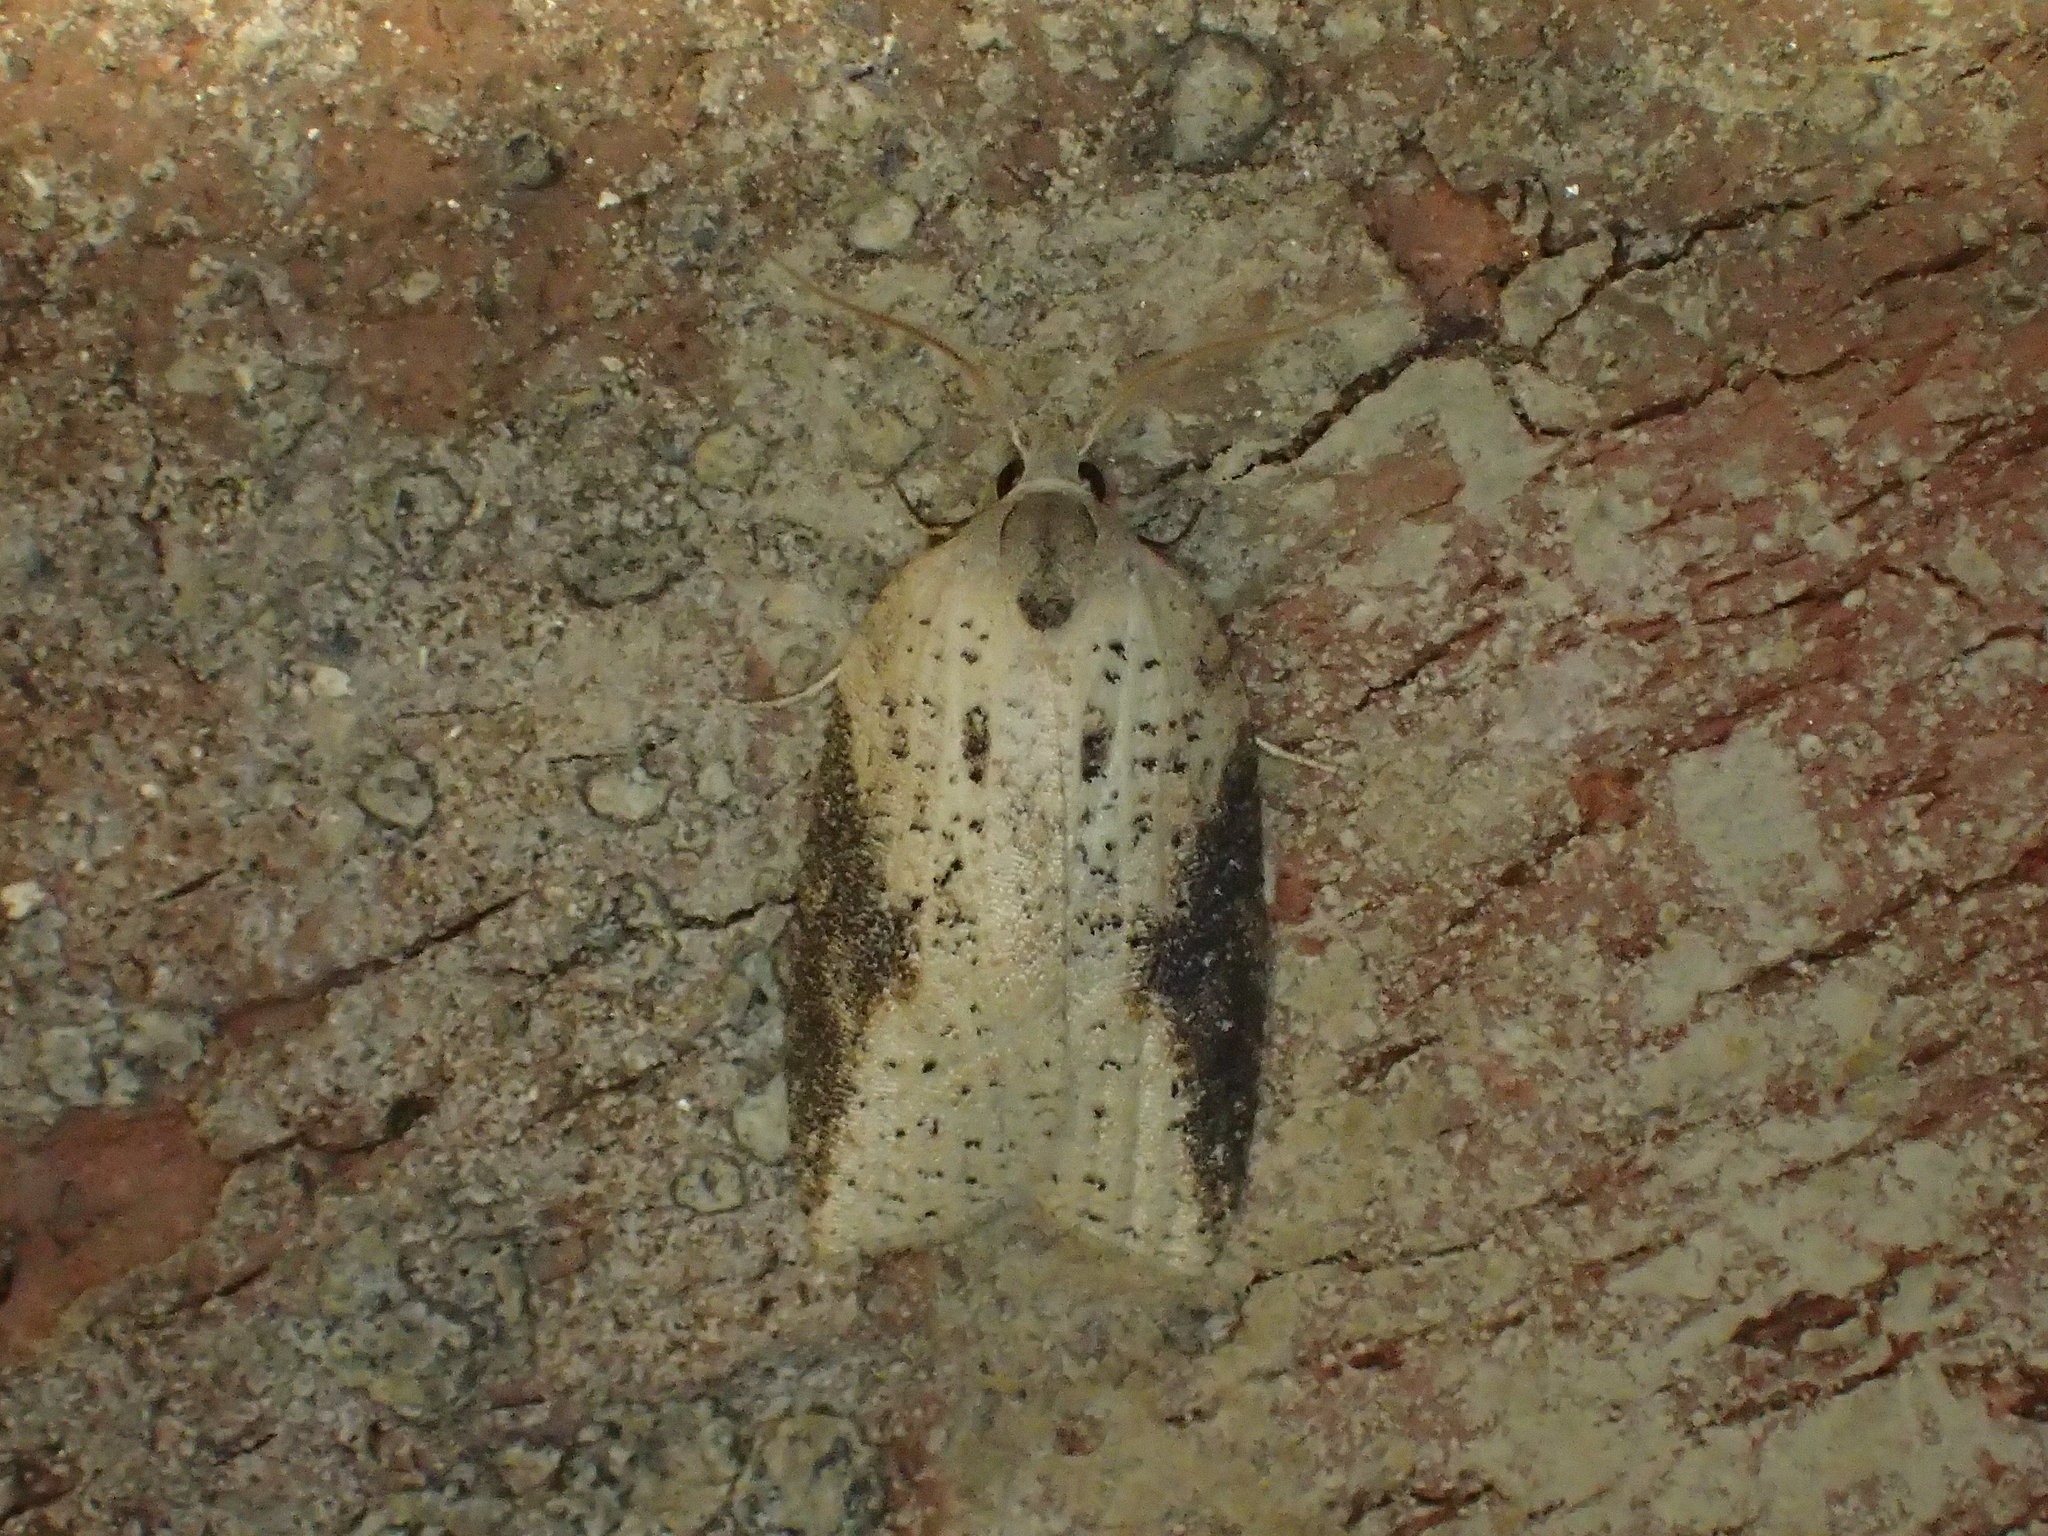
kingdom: Animalia
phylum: Arthropoda
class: Insecta
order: Lepidoptera
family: Tortricidae
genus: Amorbia
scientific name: Amorbia humerosana
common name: White-lined leafroller moth
